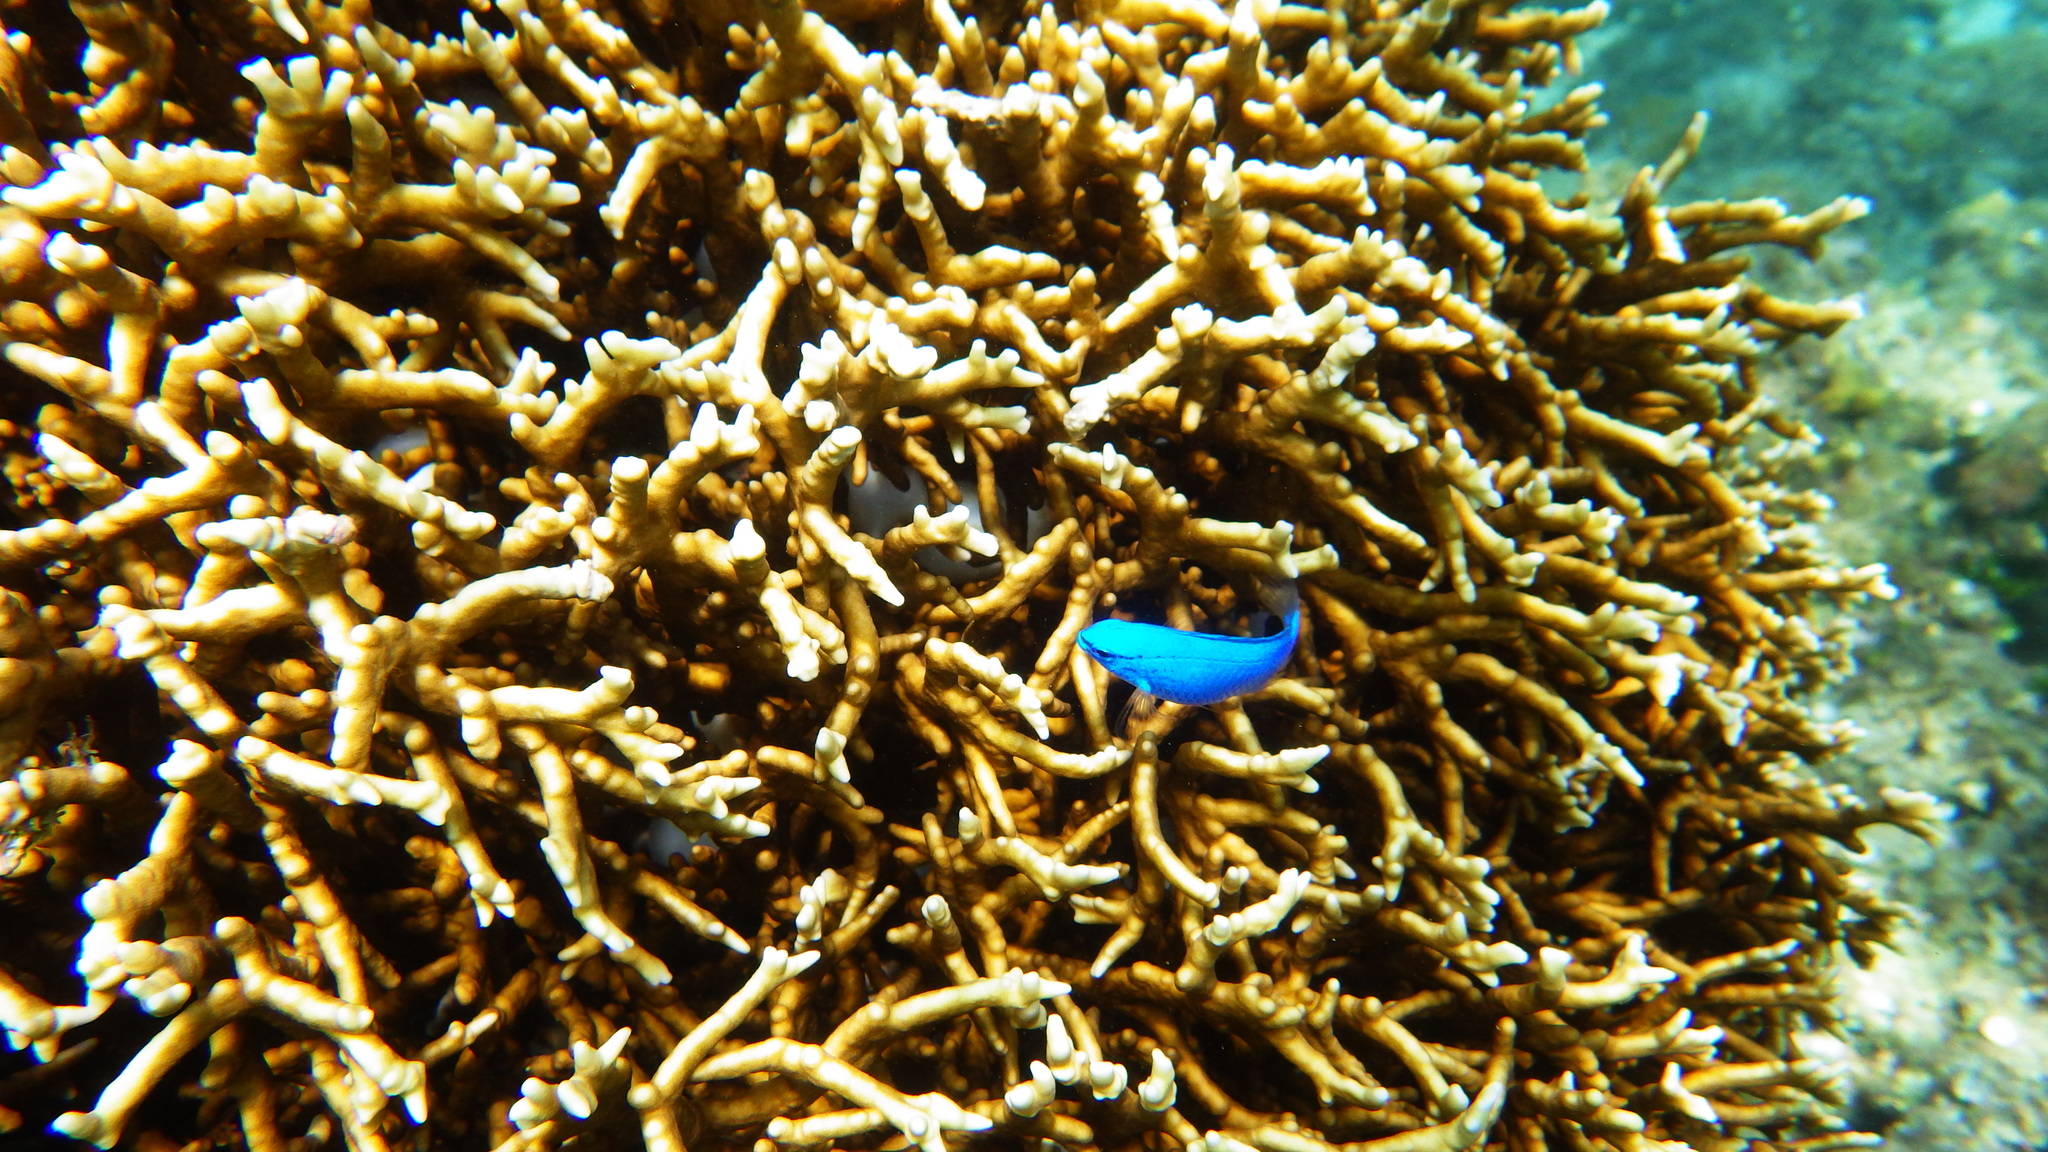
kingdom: Animalia
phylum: Chordata
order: Perciformes
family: Pomacentridae
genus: Chrysiptera
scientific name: Chrysiptera cyanea
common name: Blue devil
